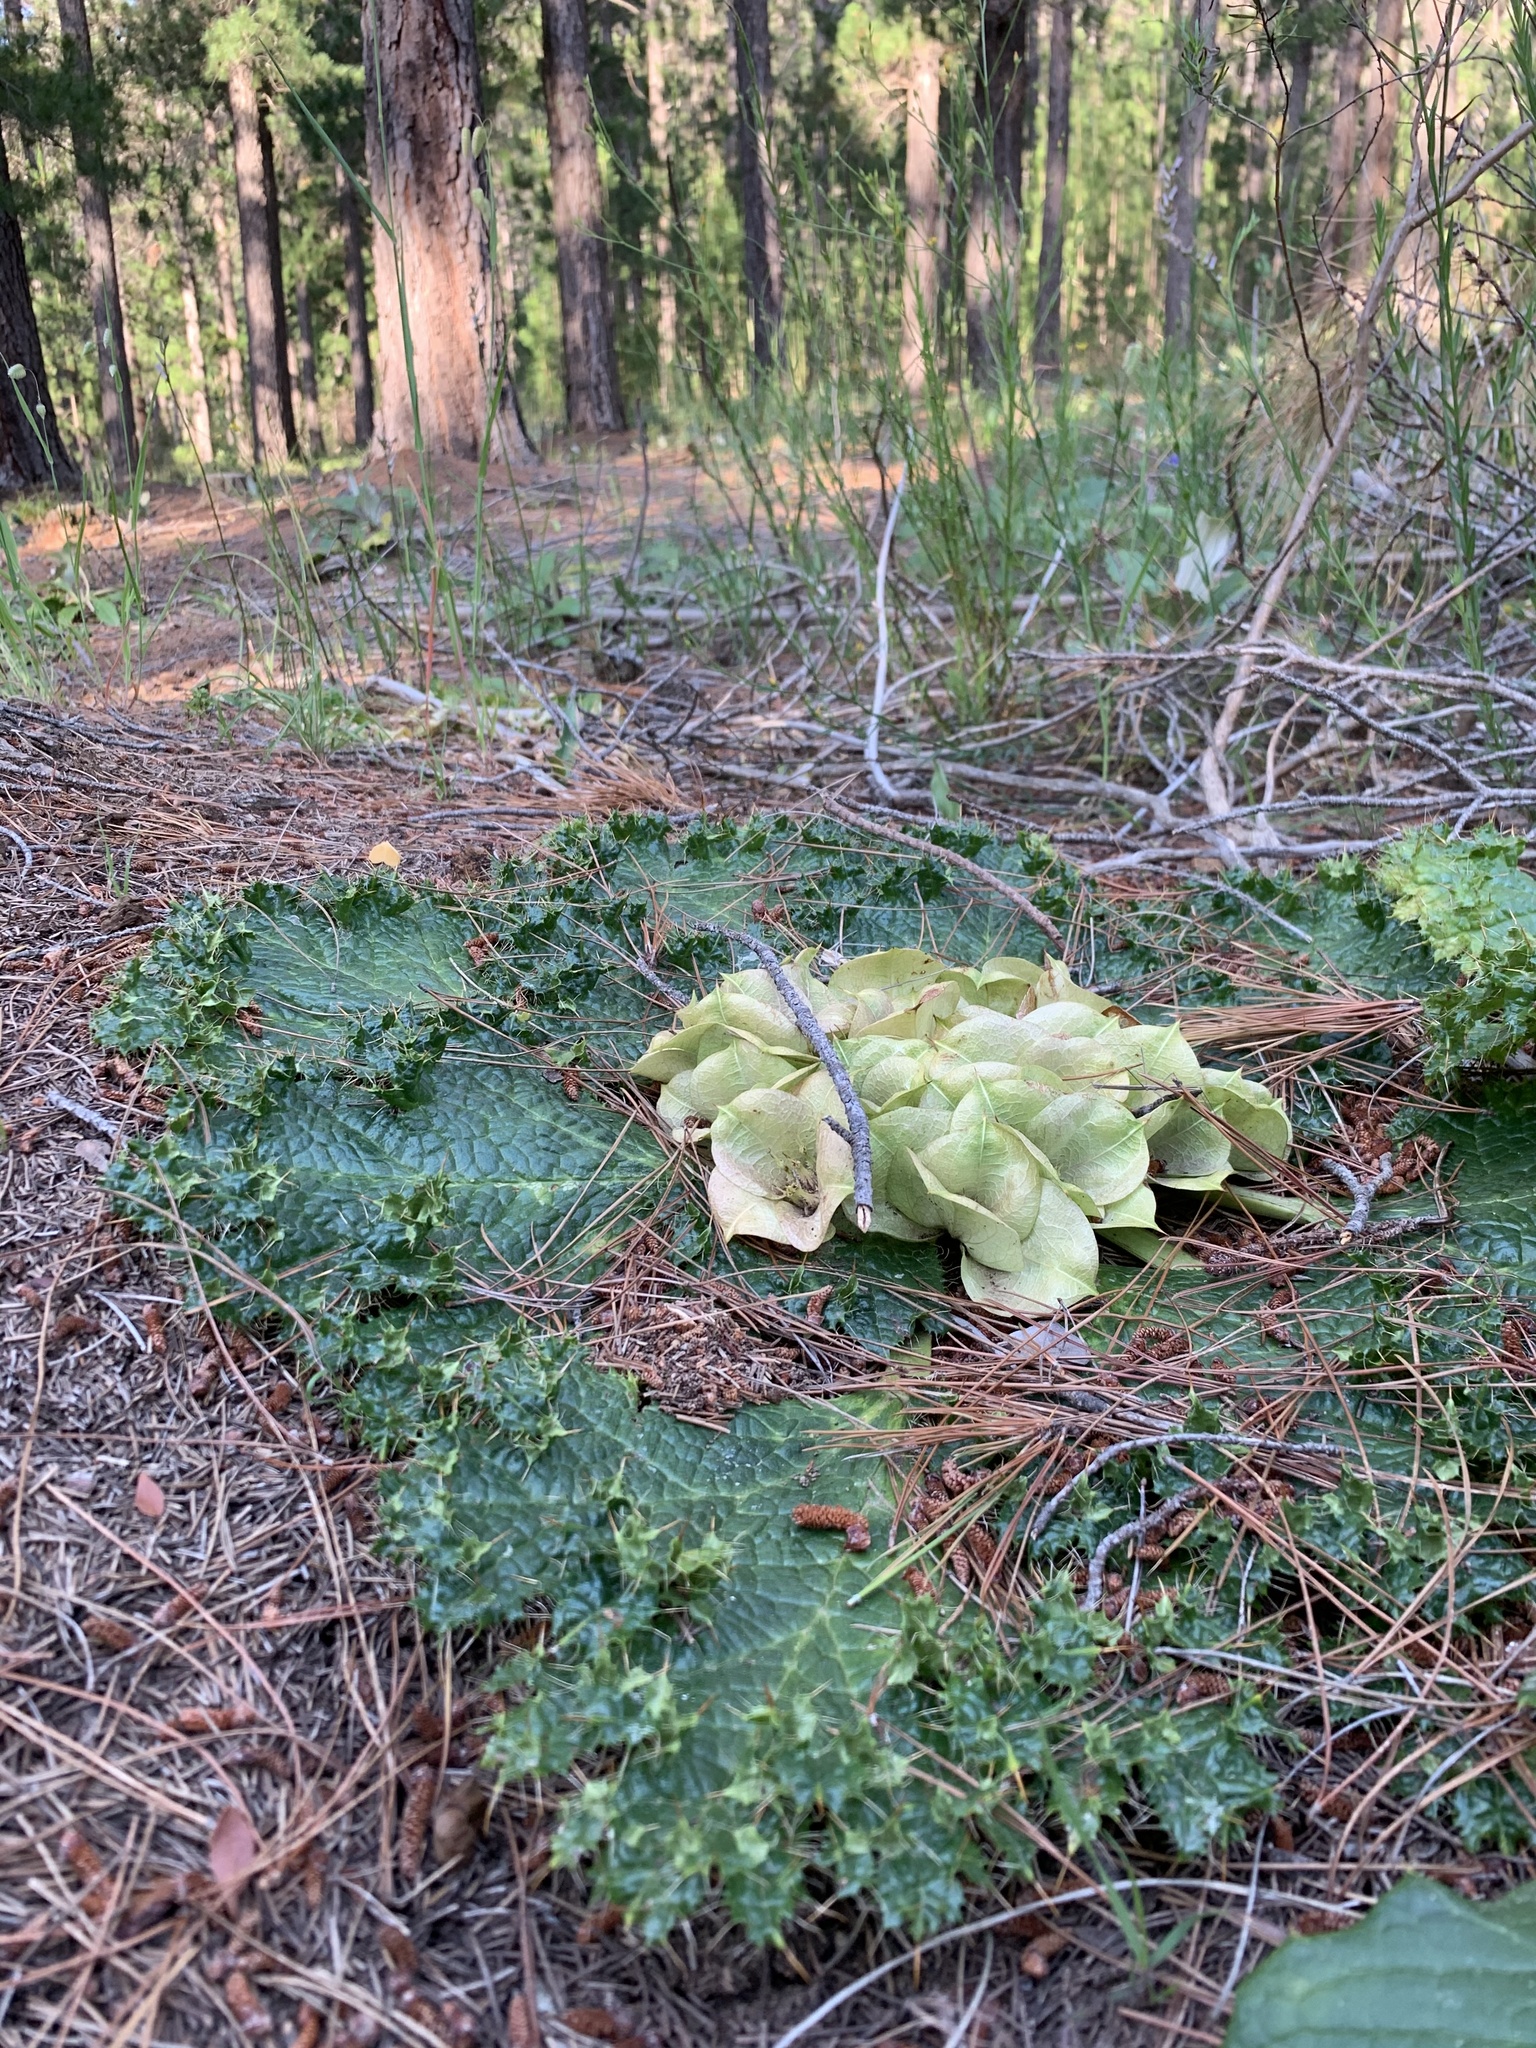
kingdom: Plantae
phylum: Tracheophyta
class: Magnoliopsida
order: Apiales
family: Apiaceae
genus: Arctopus
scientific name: Arctopus monacanthus
